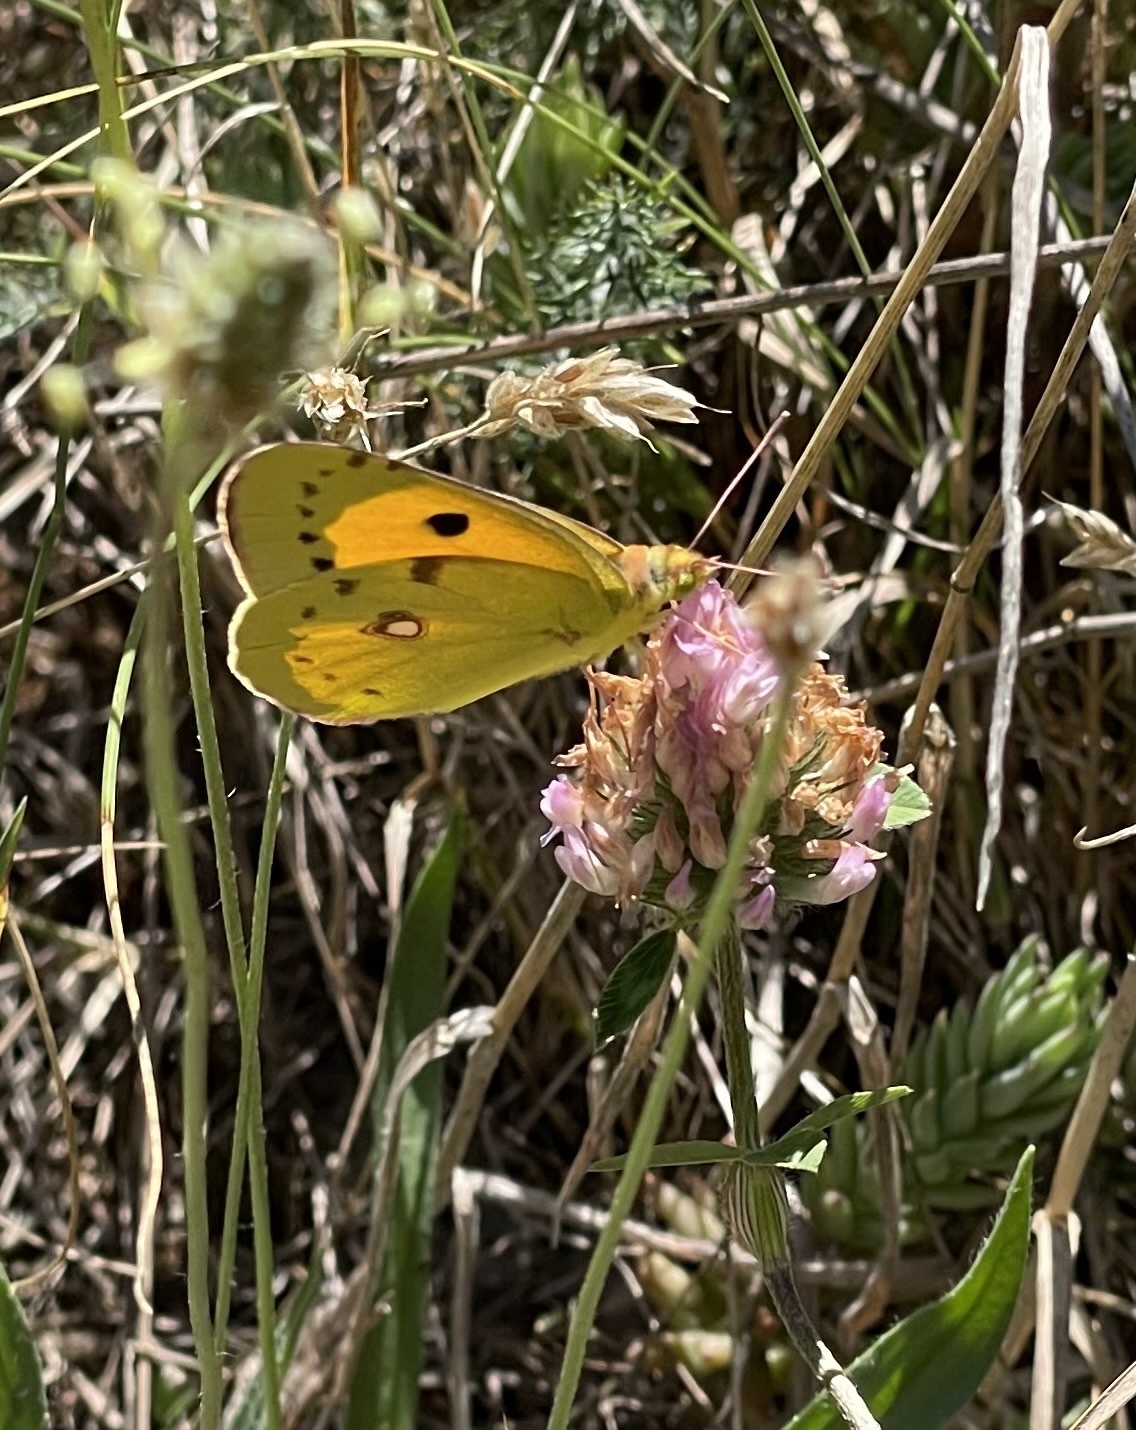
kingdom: Animalia
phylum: Arthropoda
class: Insecta
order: Lepidoptera
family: Pieridae
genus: Colias
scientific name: Colias croceus
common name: Clouded yellow
